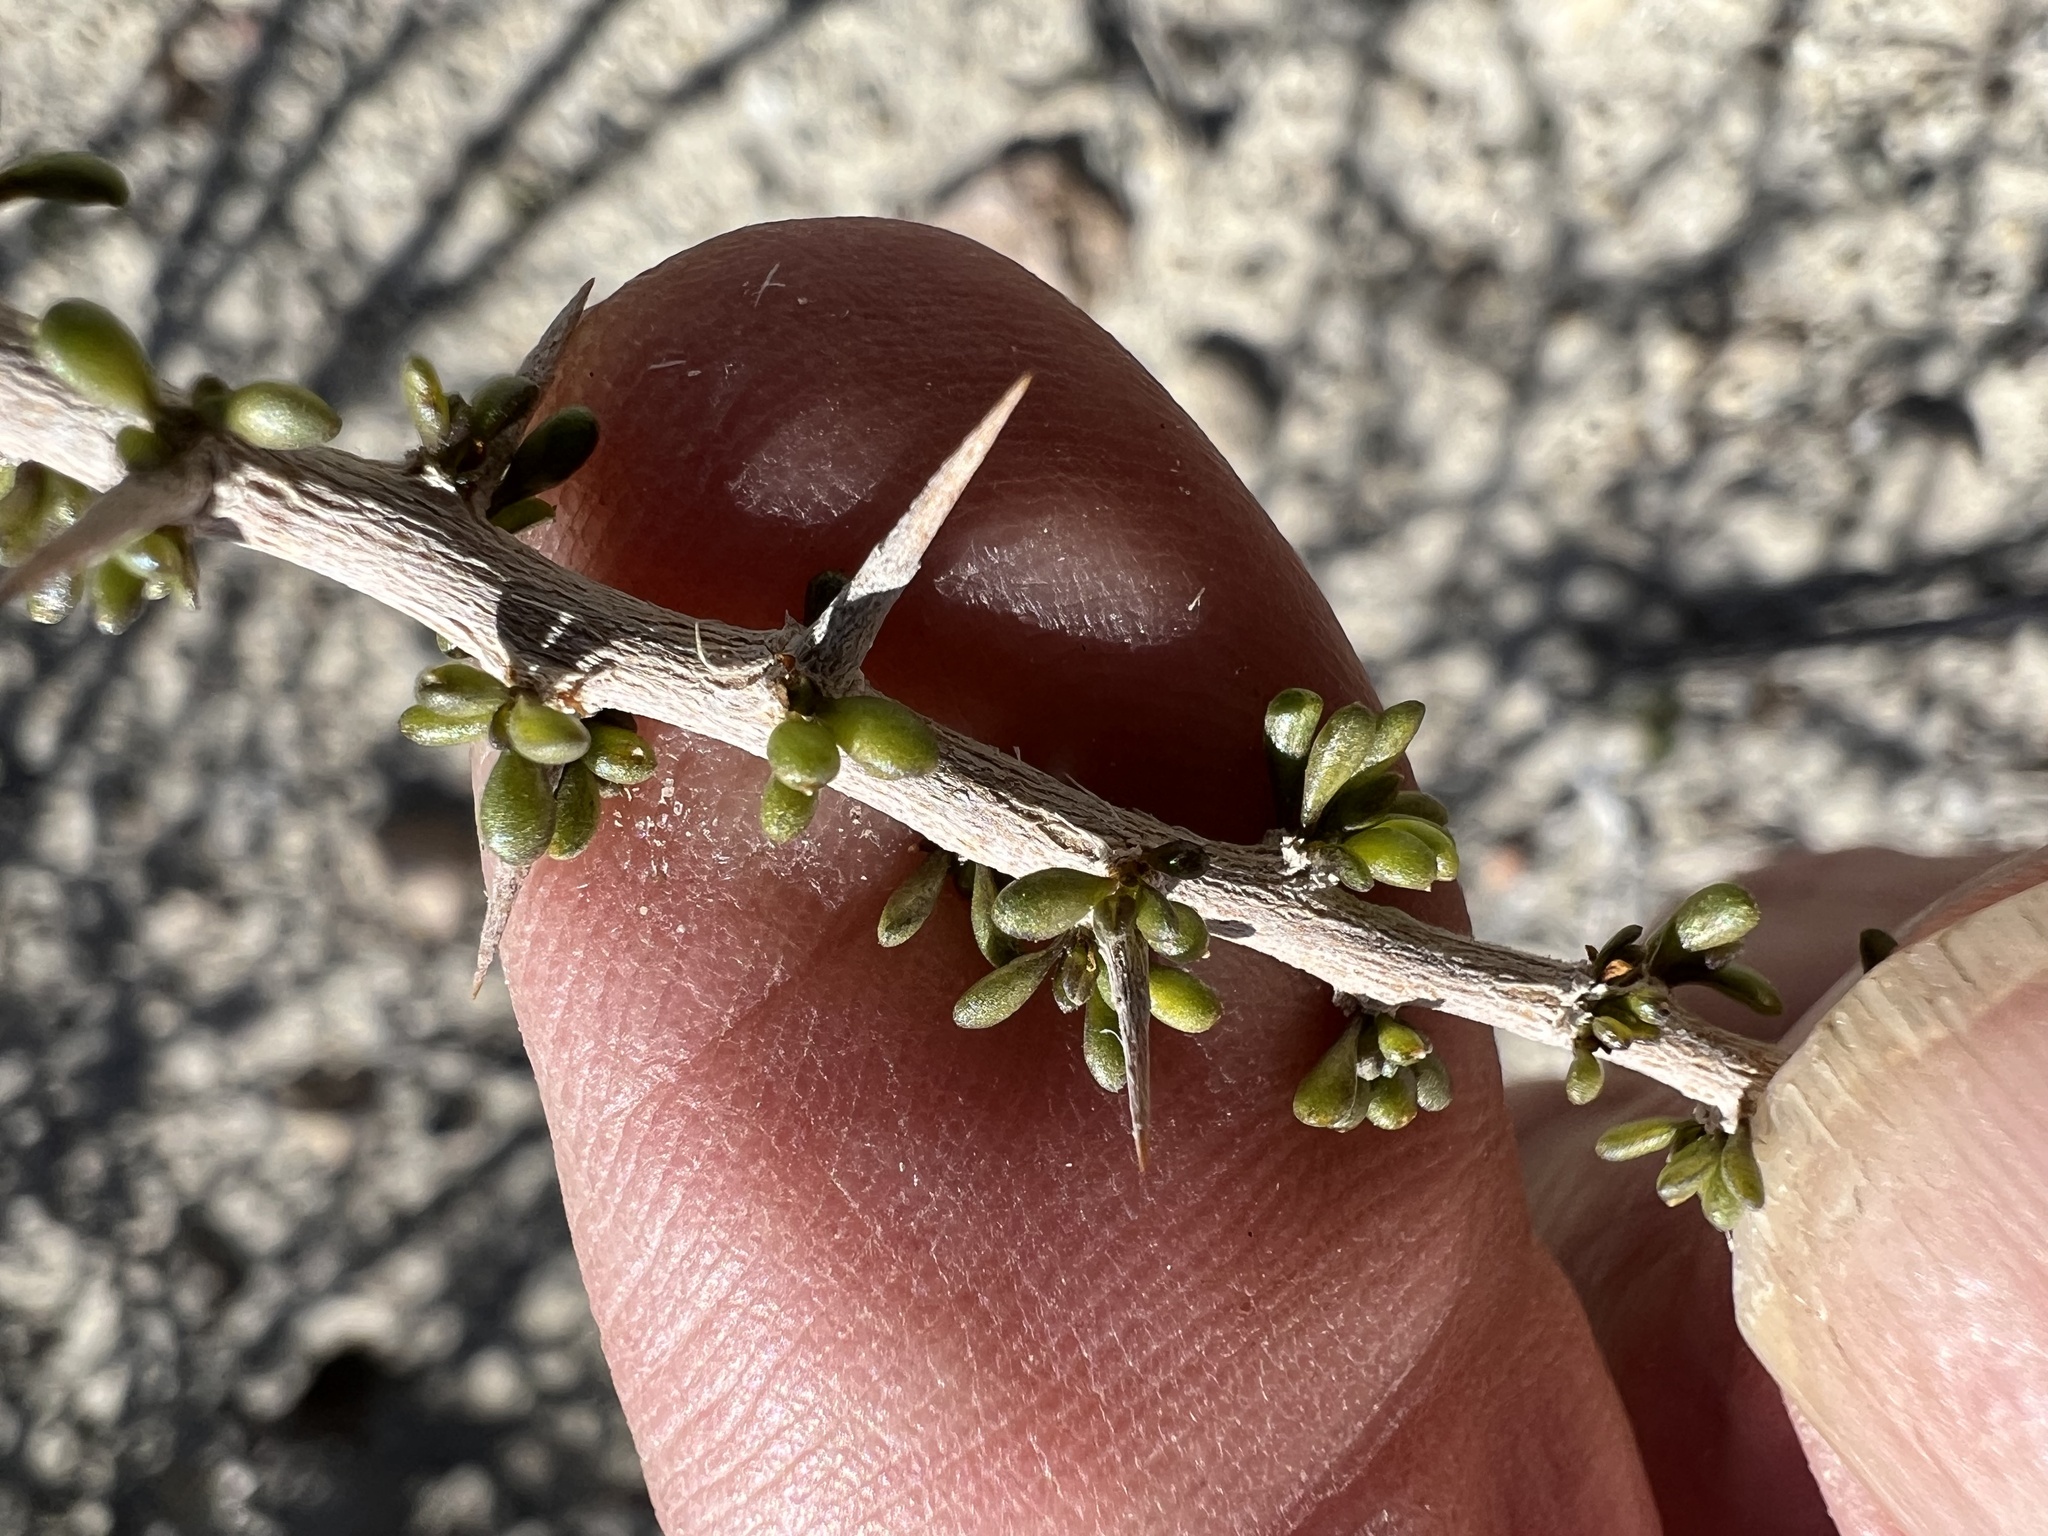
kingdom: Plantae
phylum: Tracheophyta
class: Magnoliopsida
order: Solanales
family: Solanaceae
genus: Lycium
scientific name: Lycium andersonii
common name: Water-jacket
